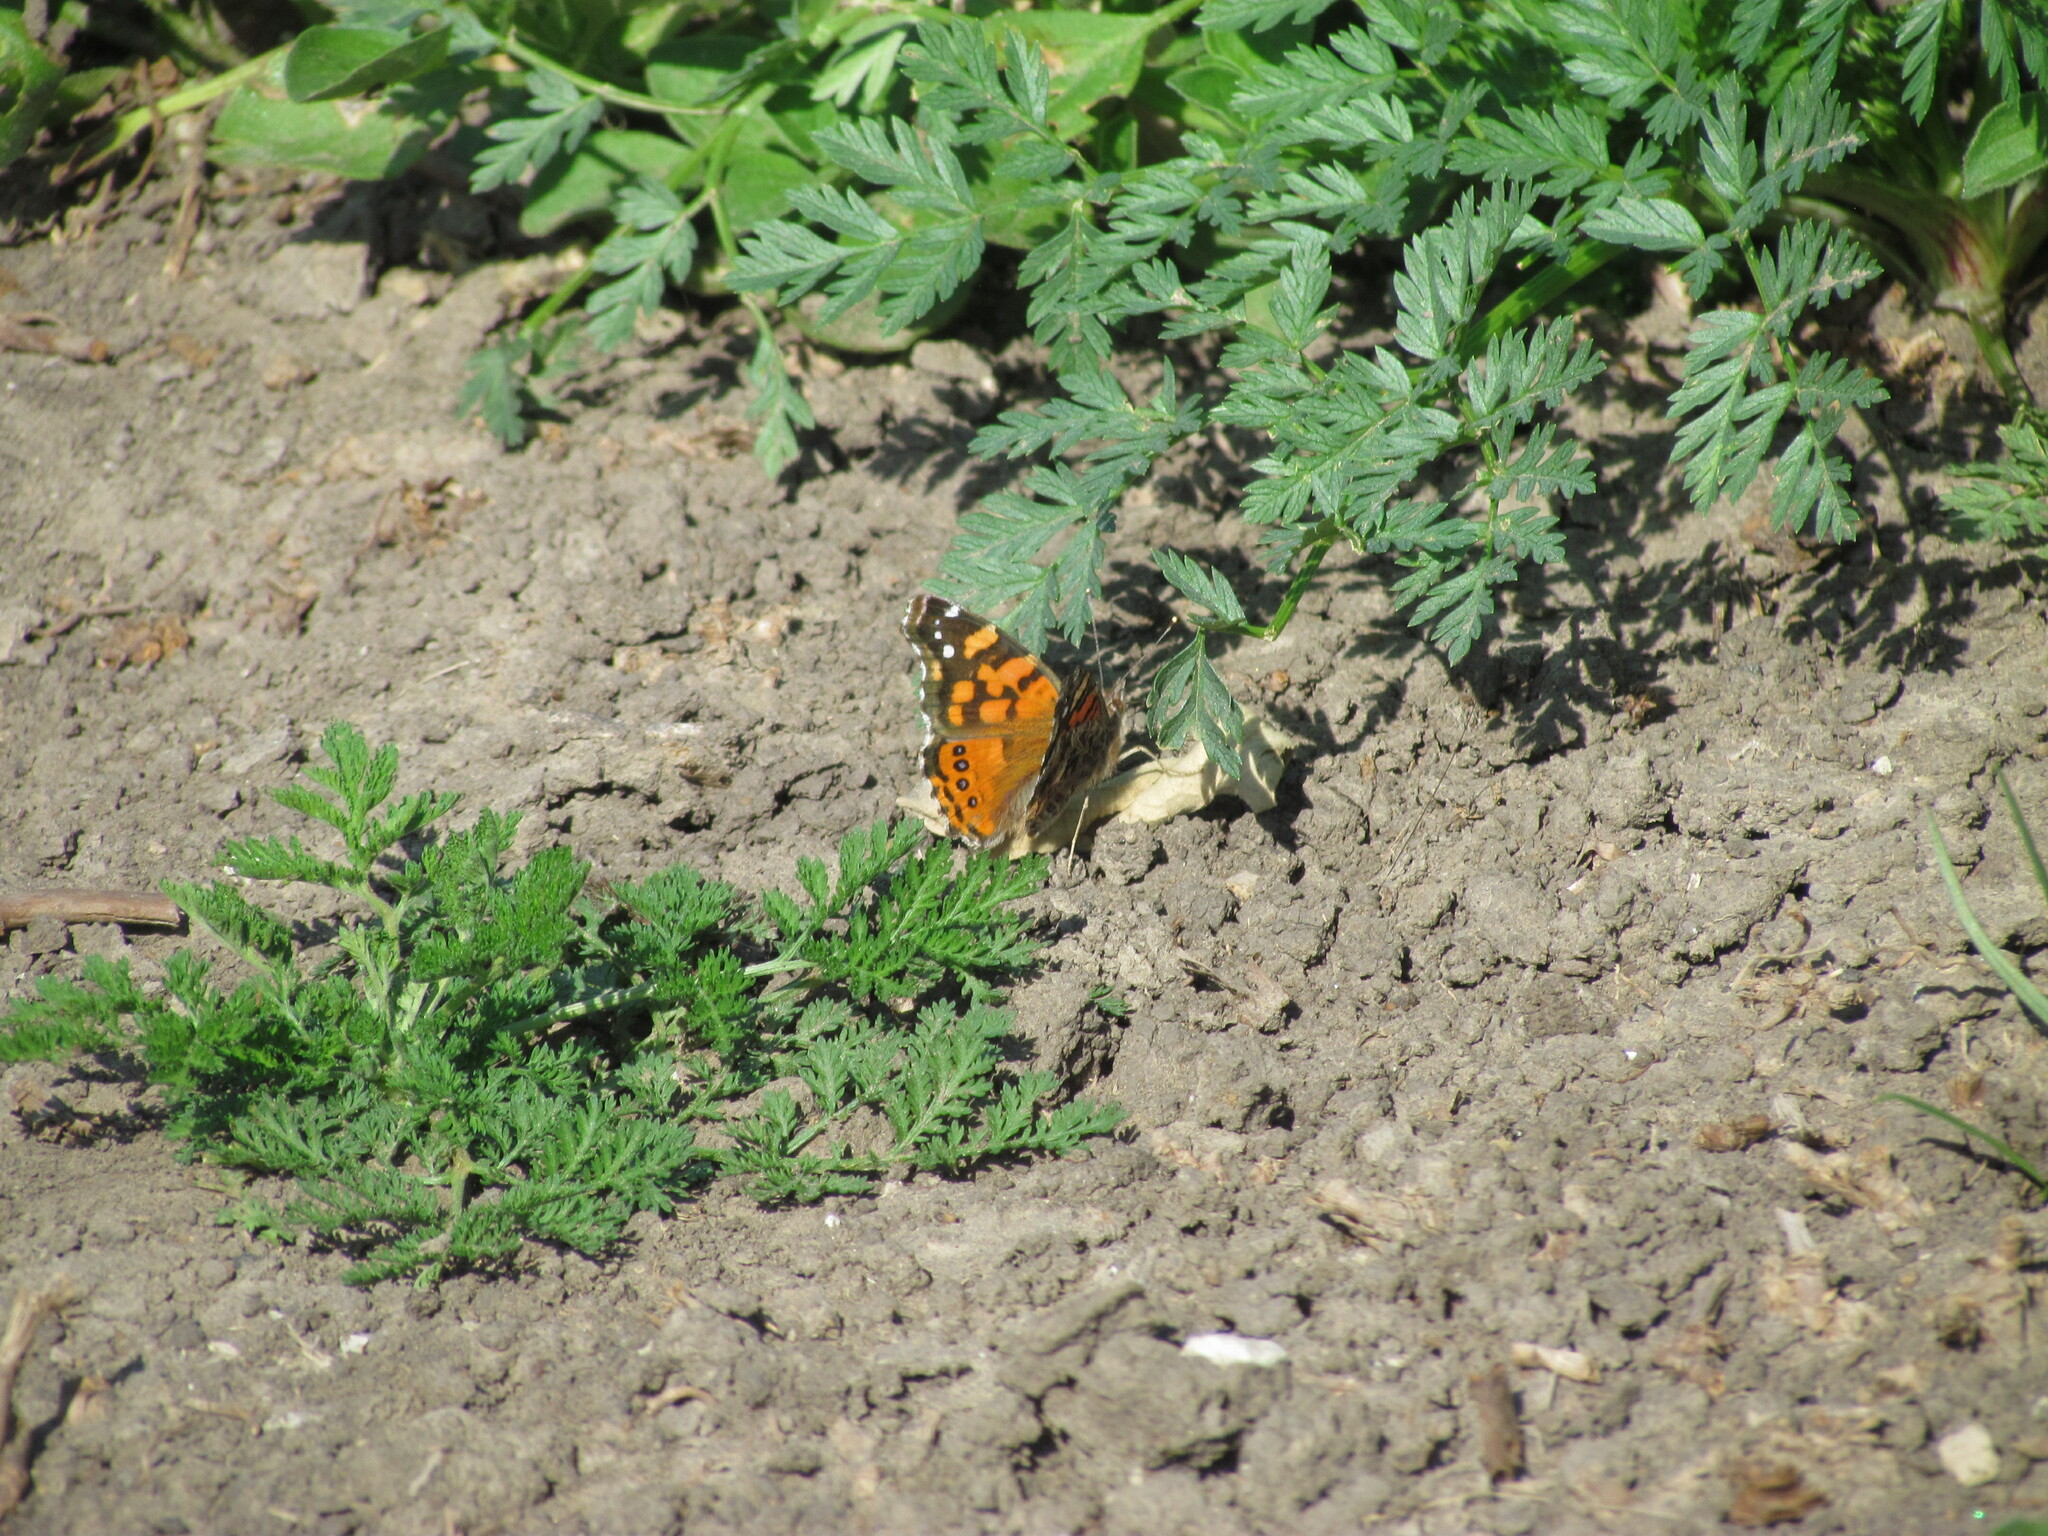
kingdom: Animalia
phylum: Arthropoda
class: Insecta
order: Lepidoptera
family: Nymphalidae
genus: Vanessa
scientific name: Vanessa carye
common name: Subtropical lady
